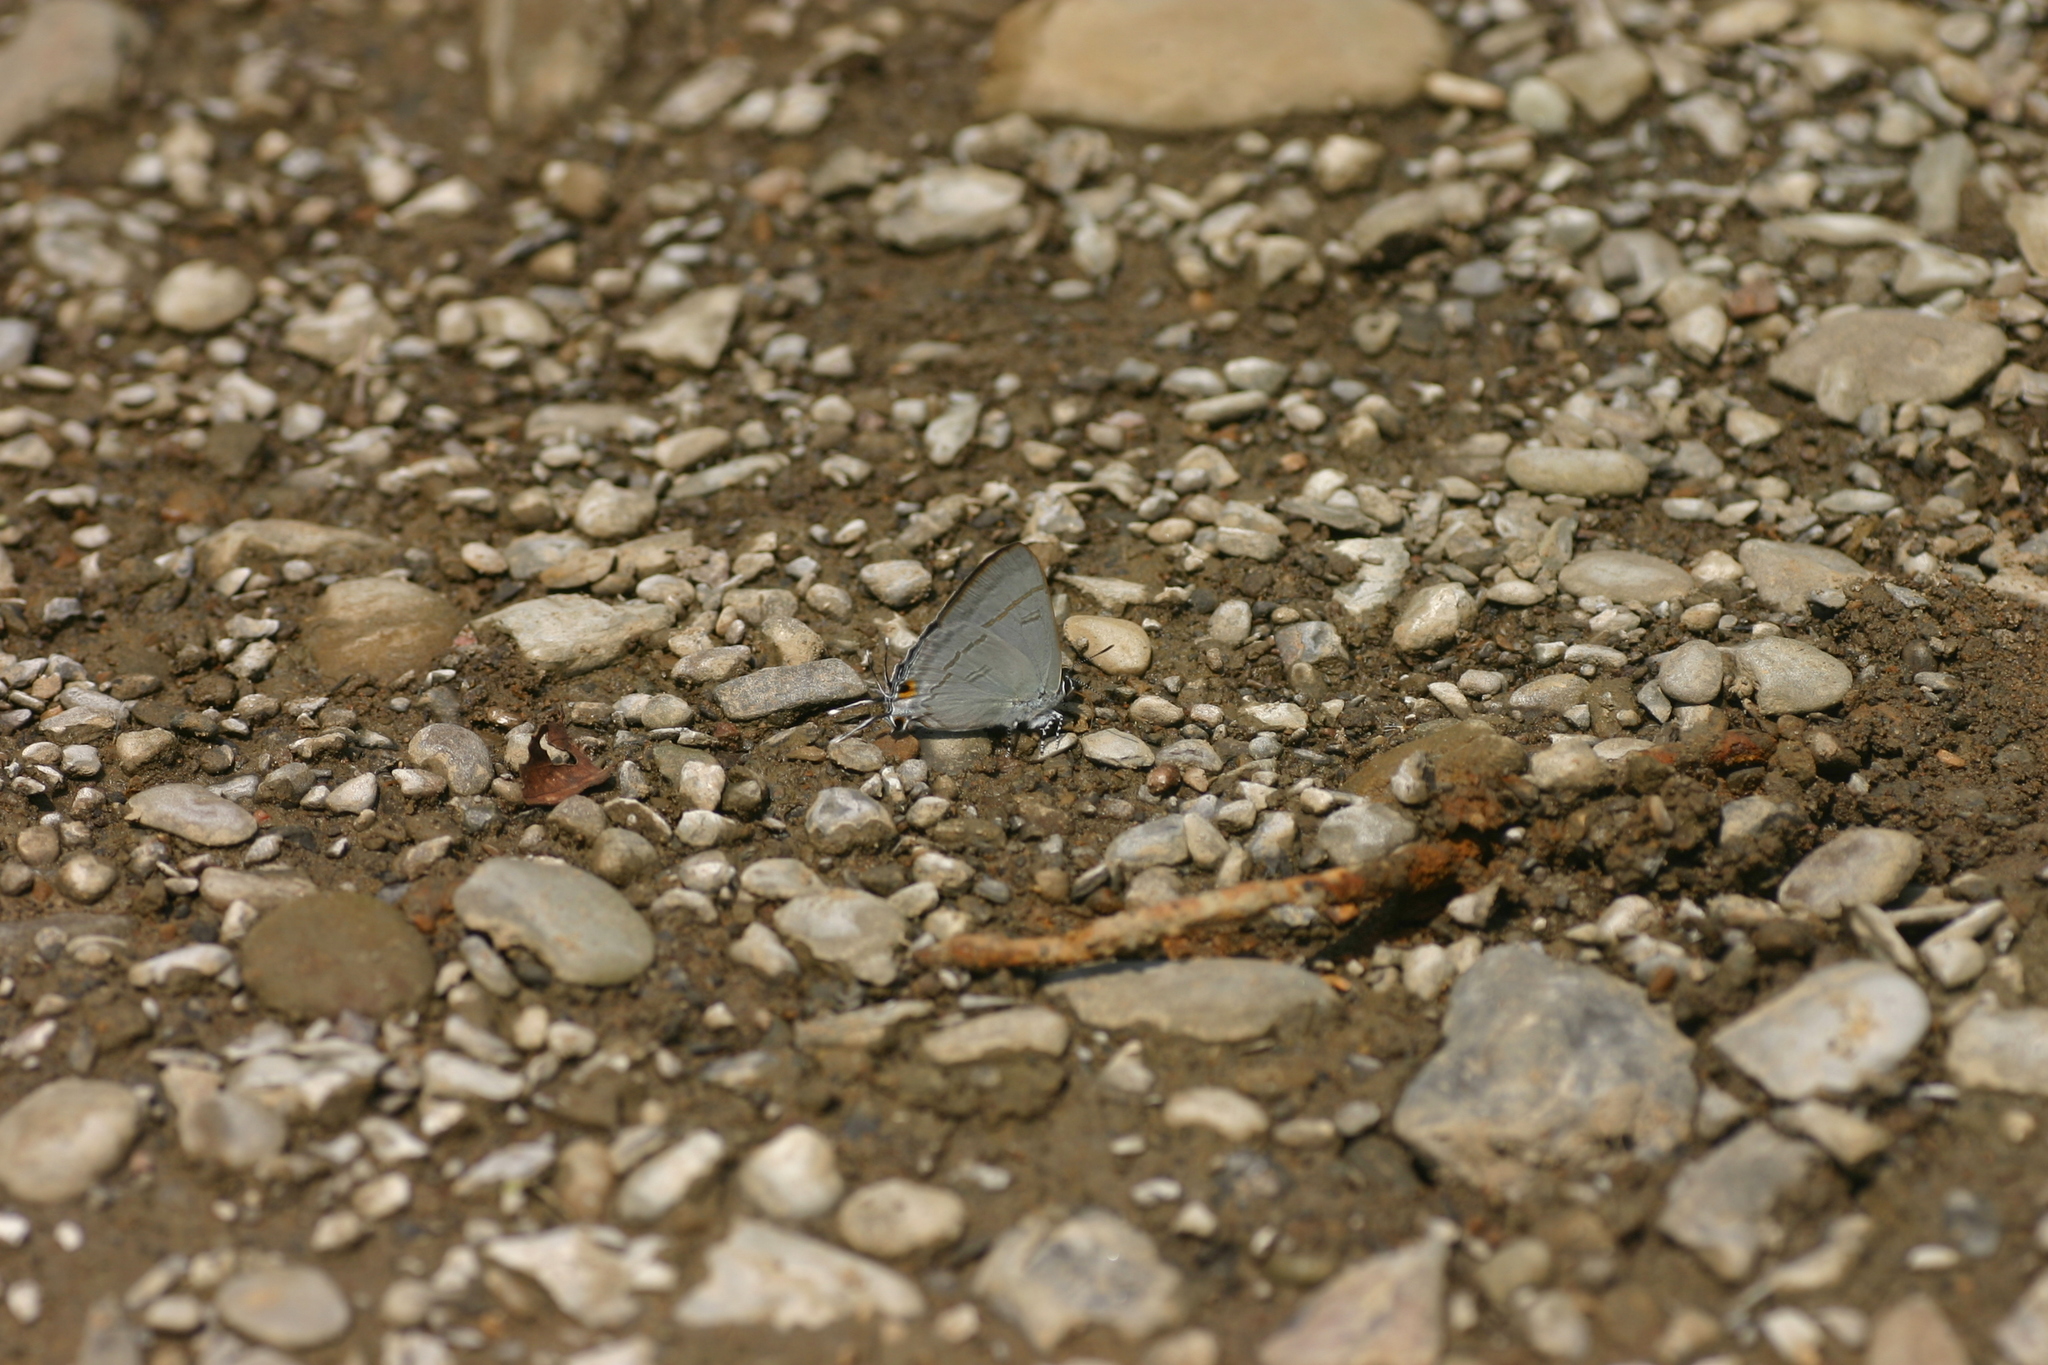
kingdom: Animalia
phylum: Arthropoda
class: Insecta
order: Lepidoptera
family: Lycaenidae
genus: Hypolycaena
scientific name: Hypolycaena erylus
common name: Common tit
